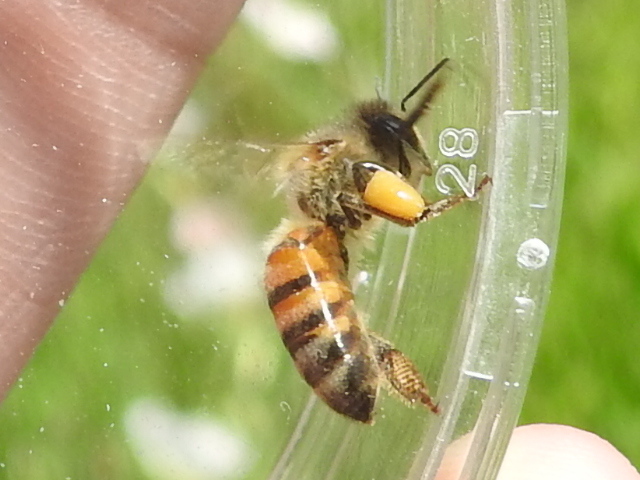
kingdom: Animalia
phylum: Arthropoda
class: Insecta
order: Hymenoptera
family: Apidae
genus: Apis
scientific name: Apis mellifera
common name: Honey bee
